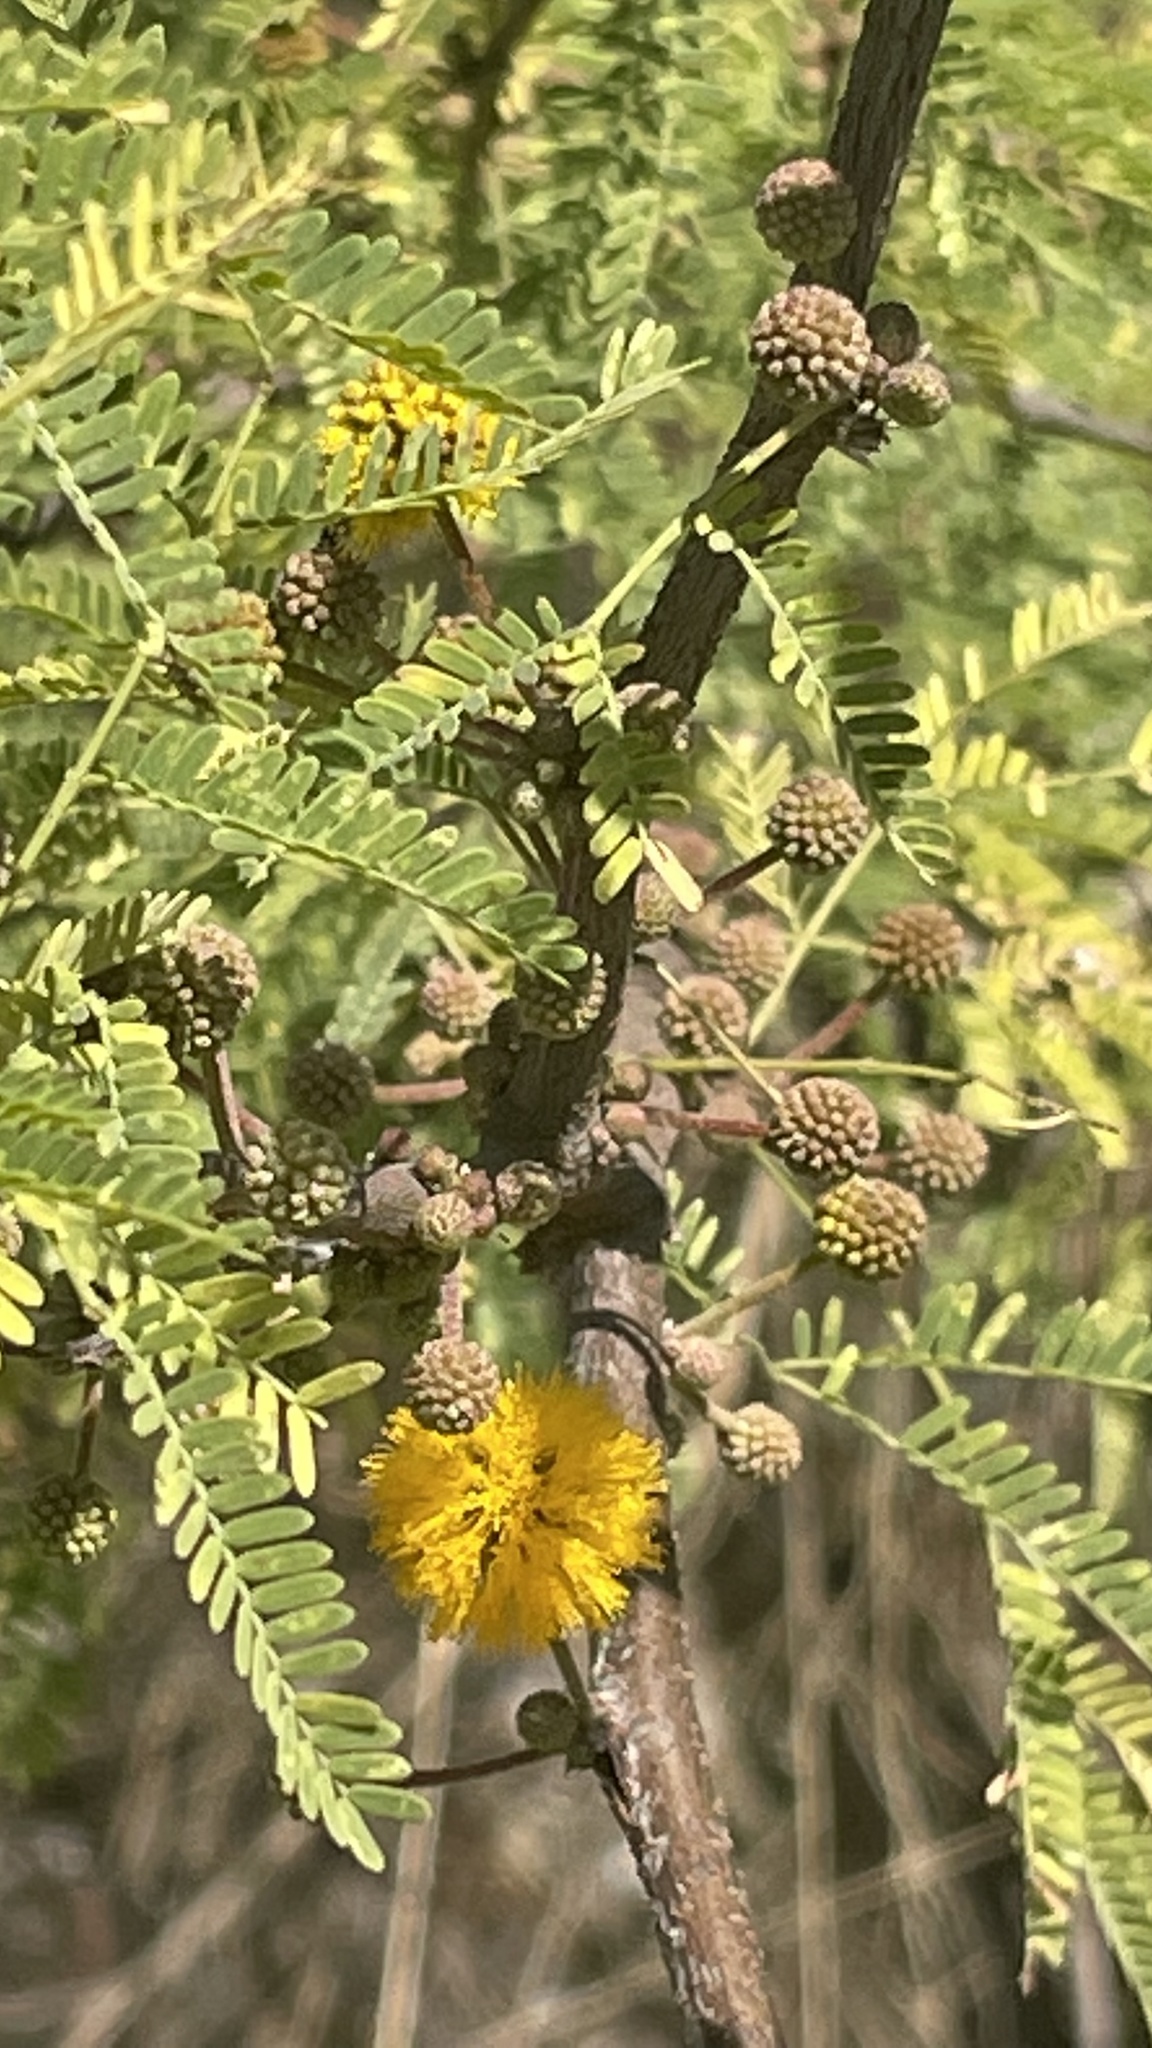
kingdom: Plantae
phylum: Tracheophyta
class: Magnoliopsida
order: Fabales
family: Fabaceae
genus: Vachellia
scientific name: Vachellia farnesiana
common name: Sweet acacia
